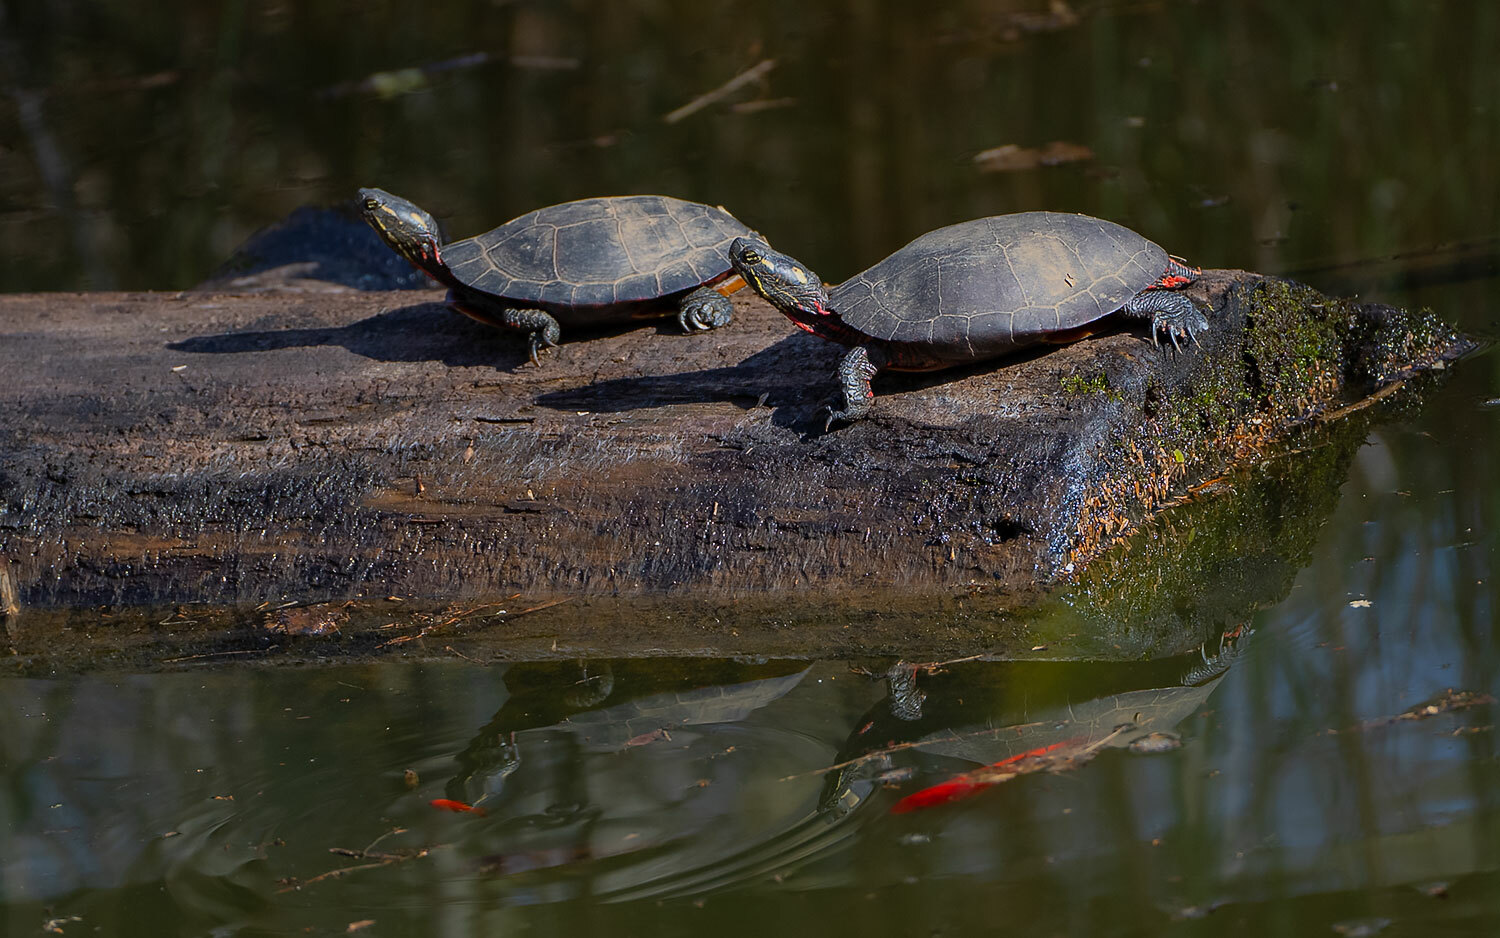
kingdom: Animalia
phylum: Chordata
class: Testudines
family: Emydidae
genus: Chrysemys
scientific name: Chrysemys picta
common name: Painted turtle
